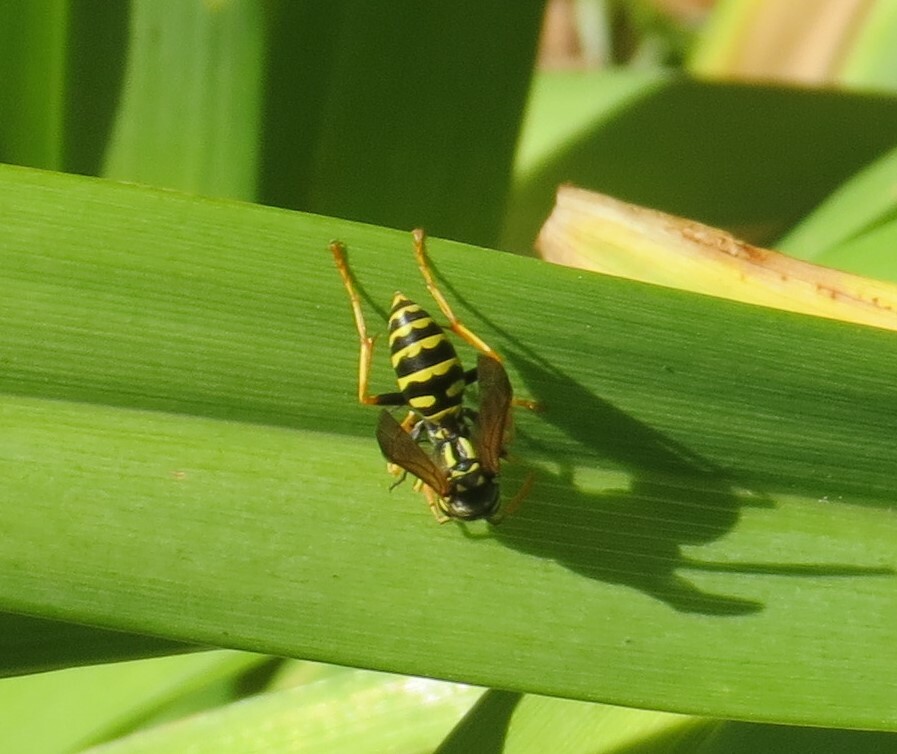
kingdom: Animalia
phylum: Arthropoda
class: Insecta
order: Hymenoptera
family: Eumenidae
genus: Polistes
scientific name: Polistes dominula
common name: Paper wasp
